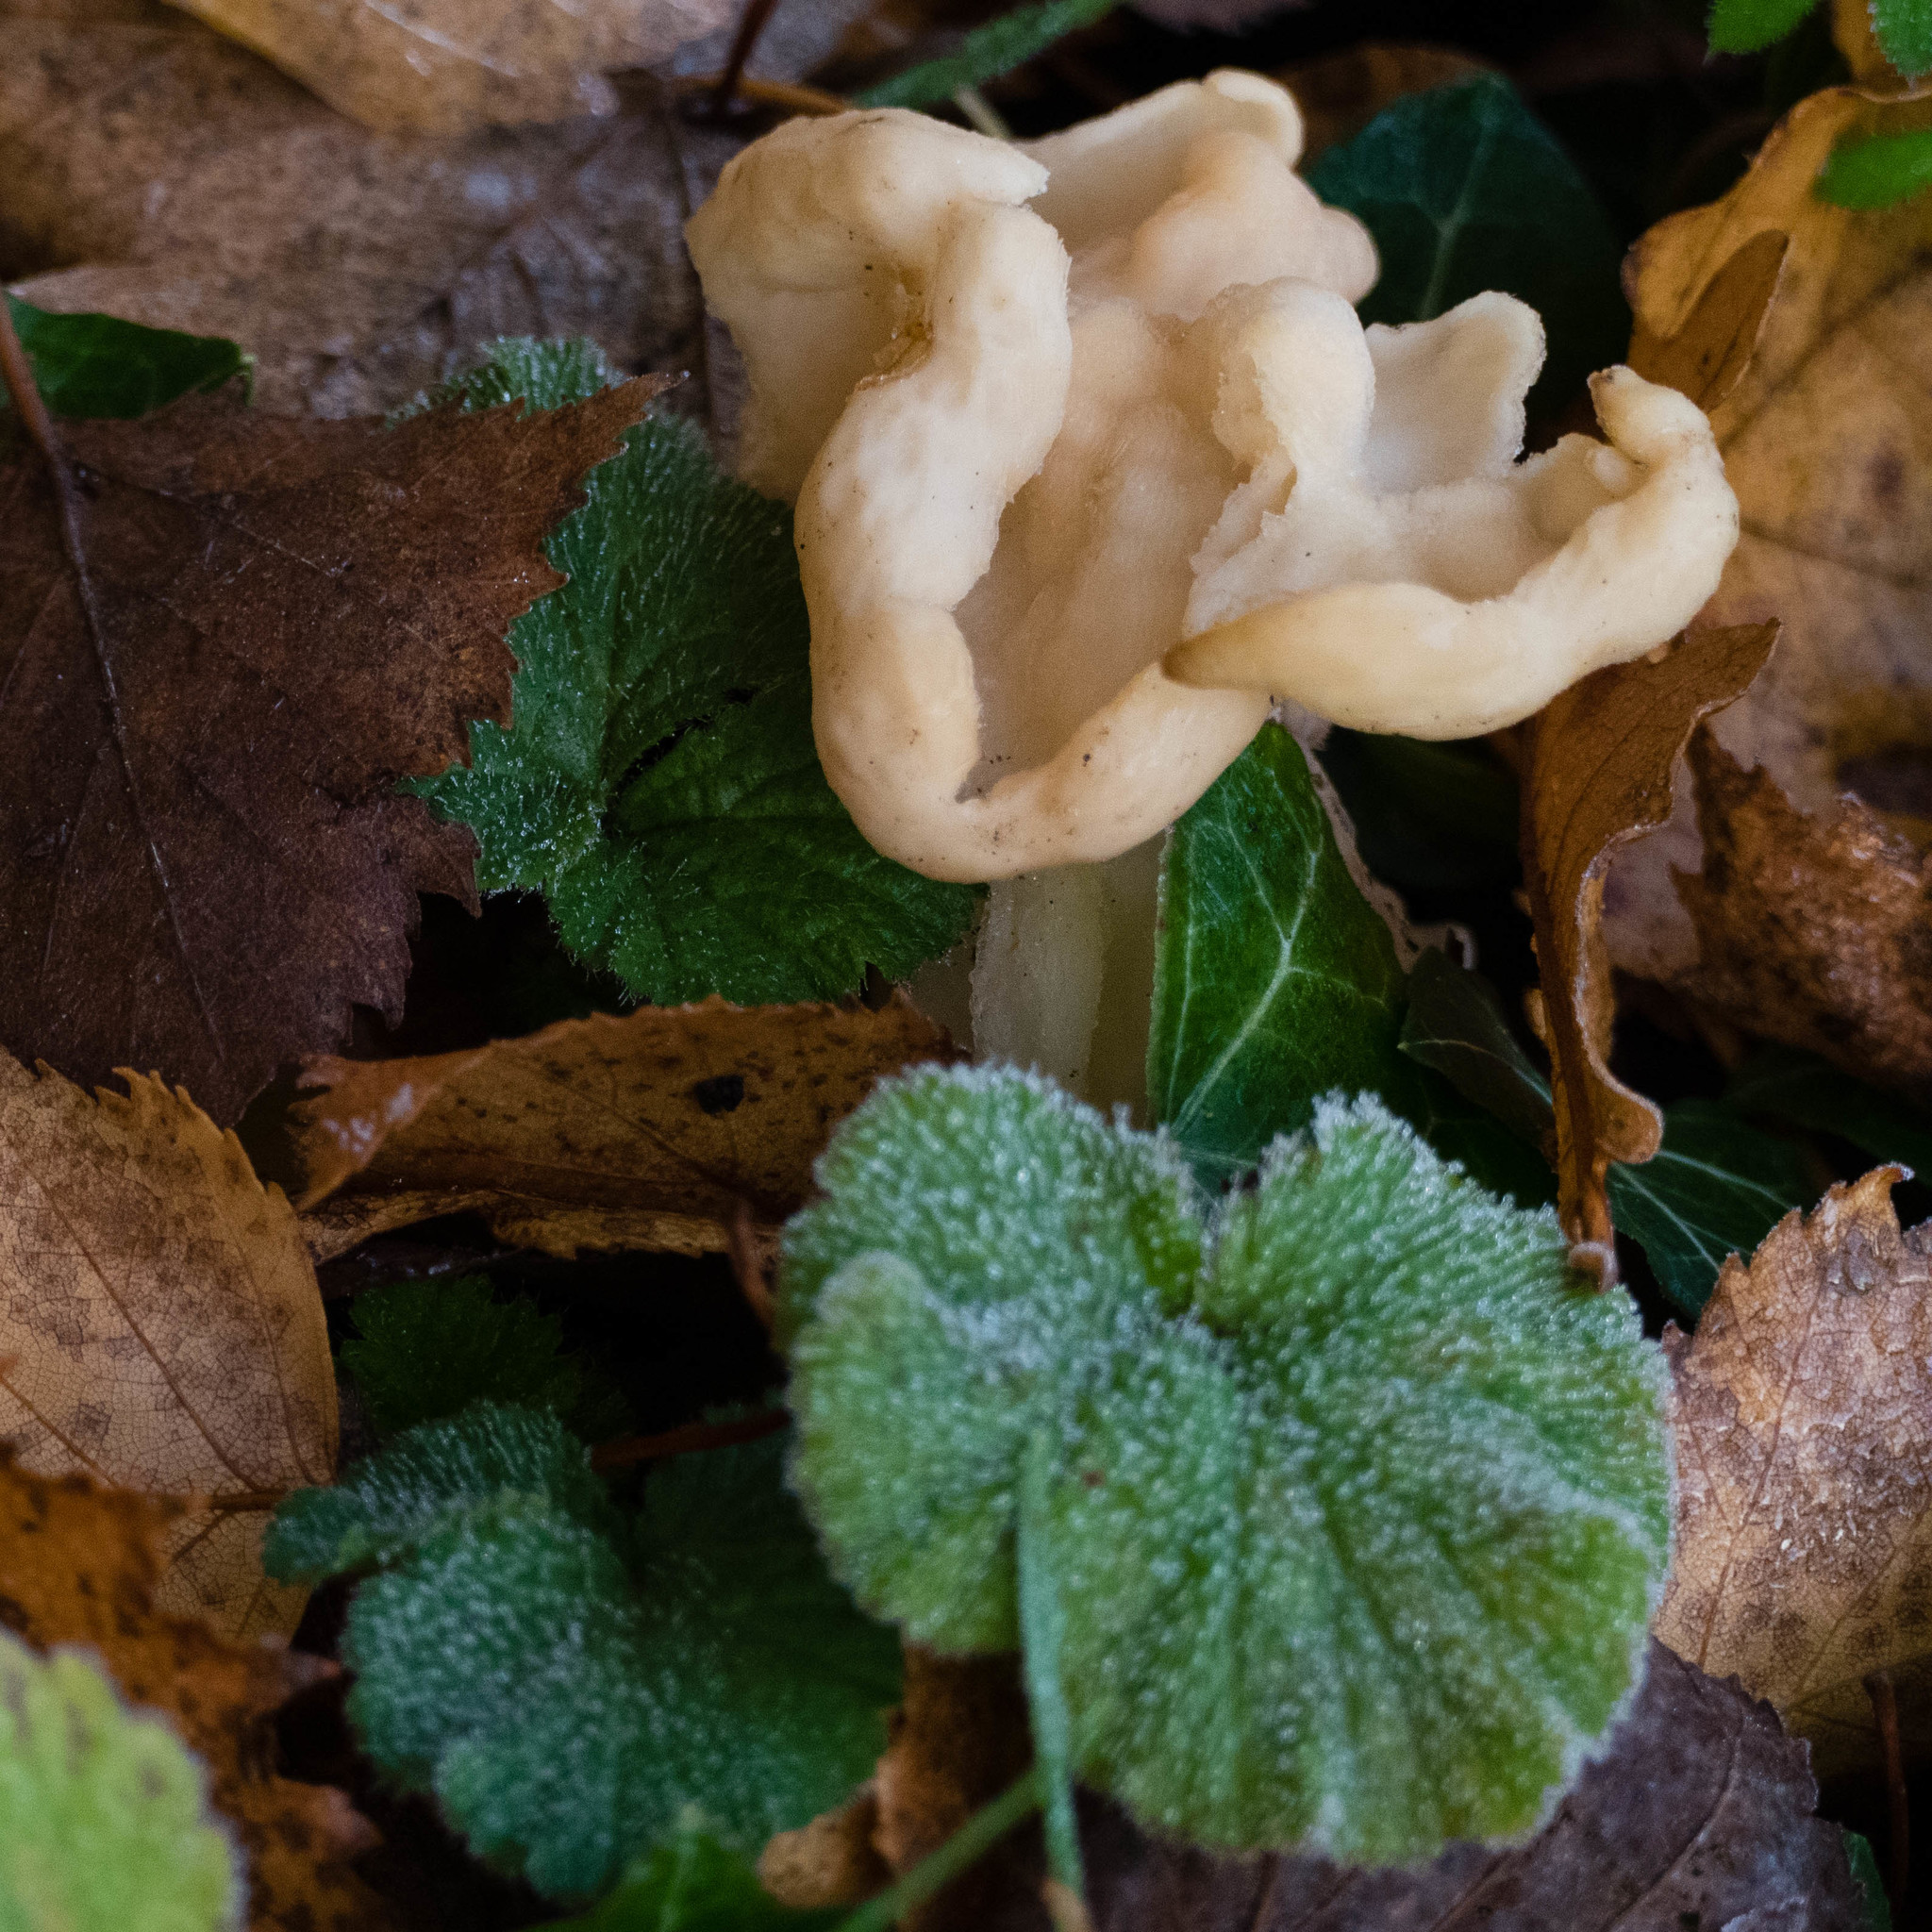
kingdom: Fungi
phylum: Ascomycota
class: Pezizomycetes
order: Pezizales
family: Helvellaceae
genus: Helvella
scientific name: Helvella crispa
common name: White saddle
